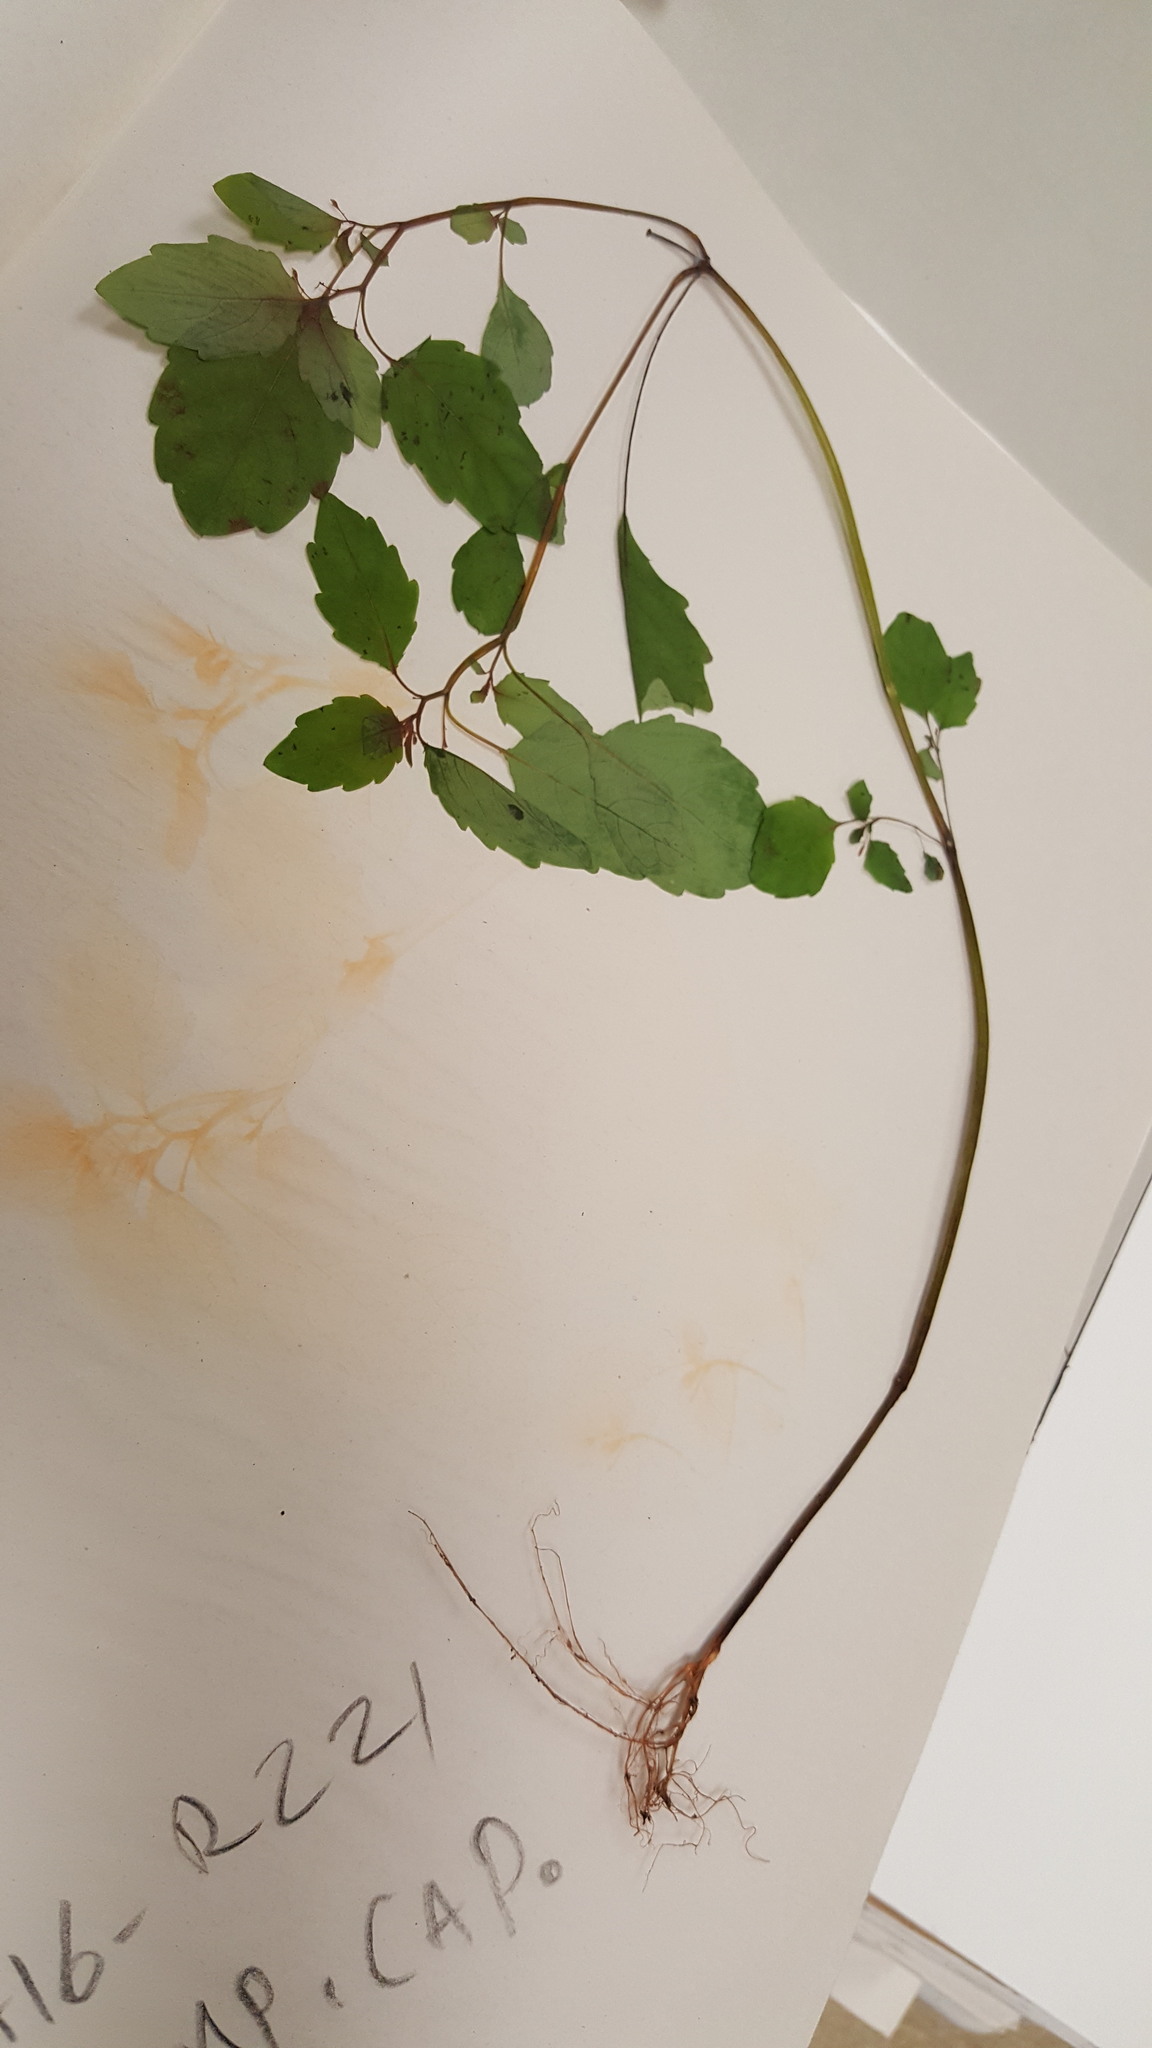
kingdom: Plantae
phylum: Tracheophyta
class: Magnoliopsida
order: Ericales
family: Balsaminaceae
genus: Impatiens
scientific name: Impatiens capensis
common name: Orange balsam
